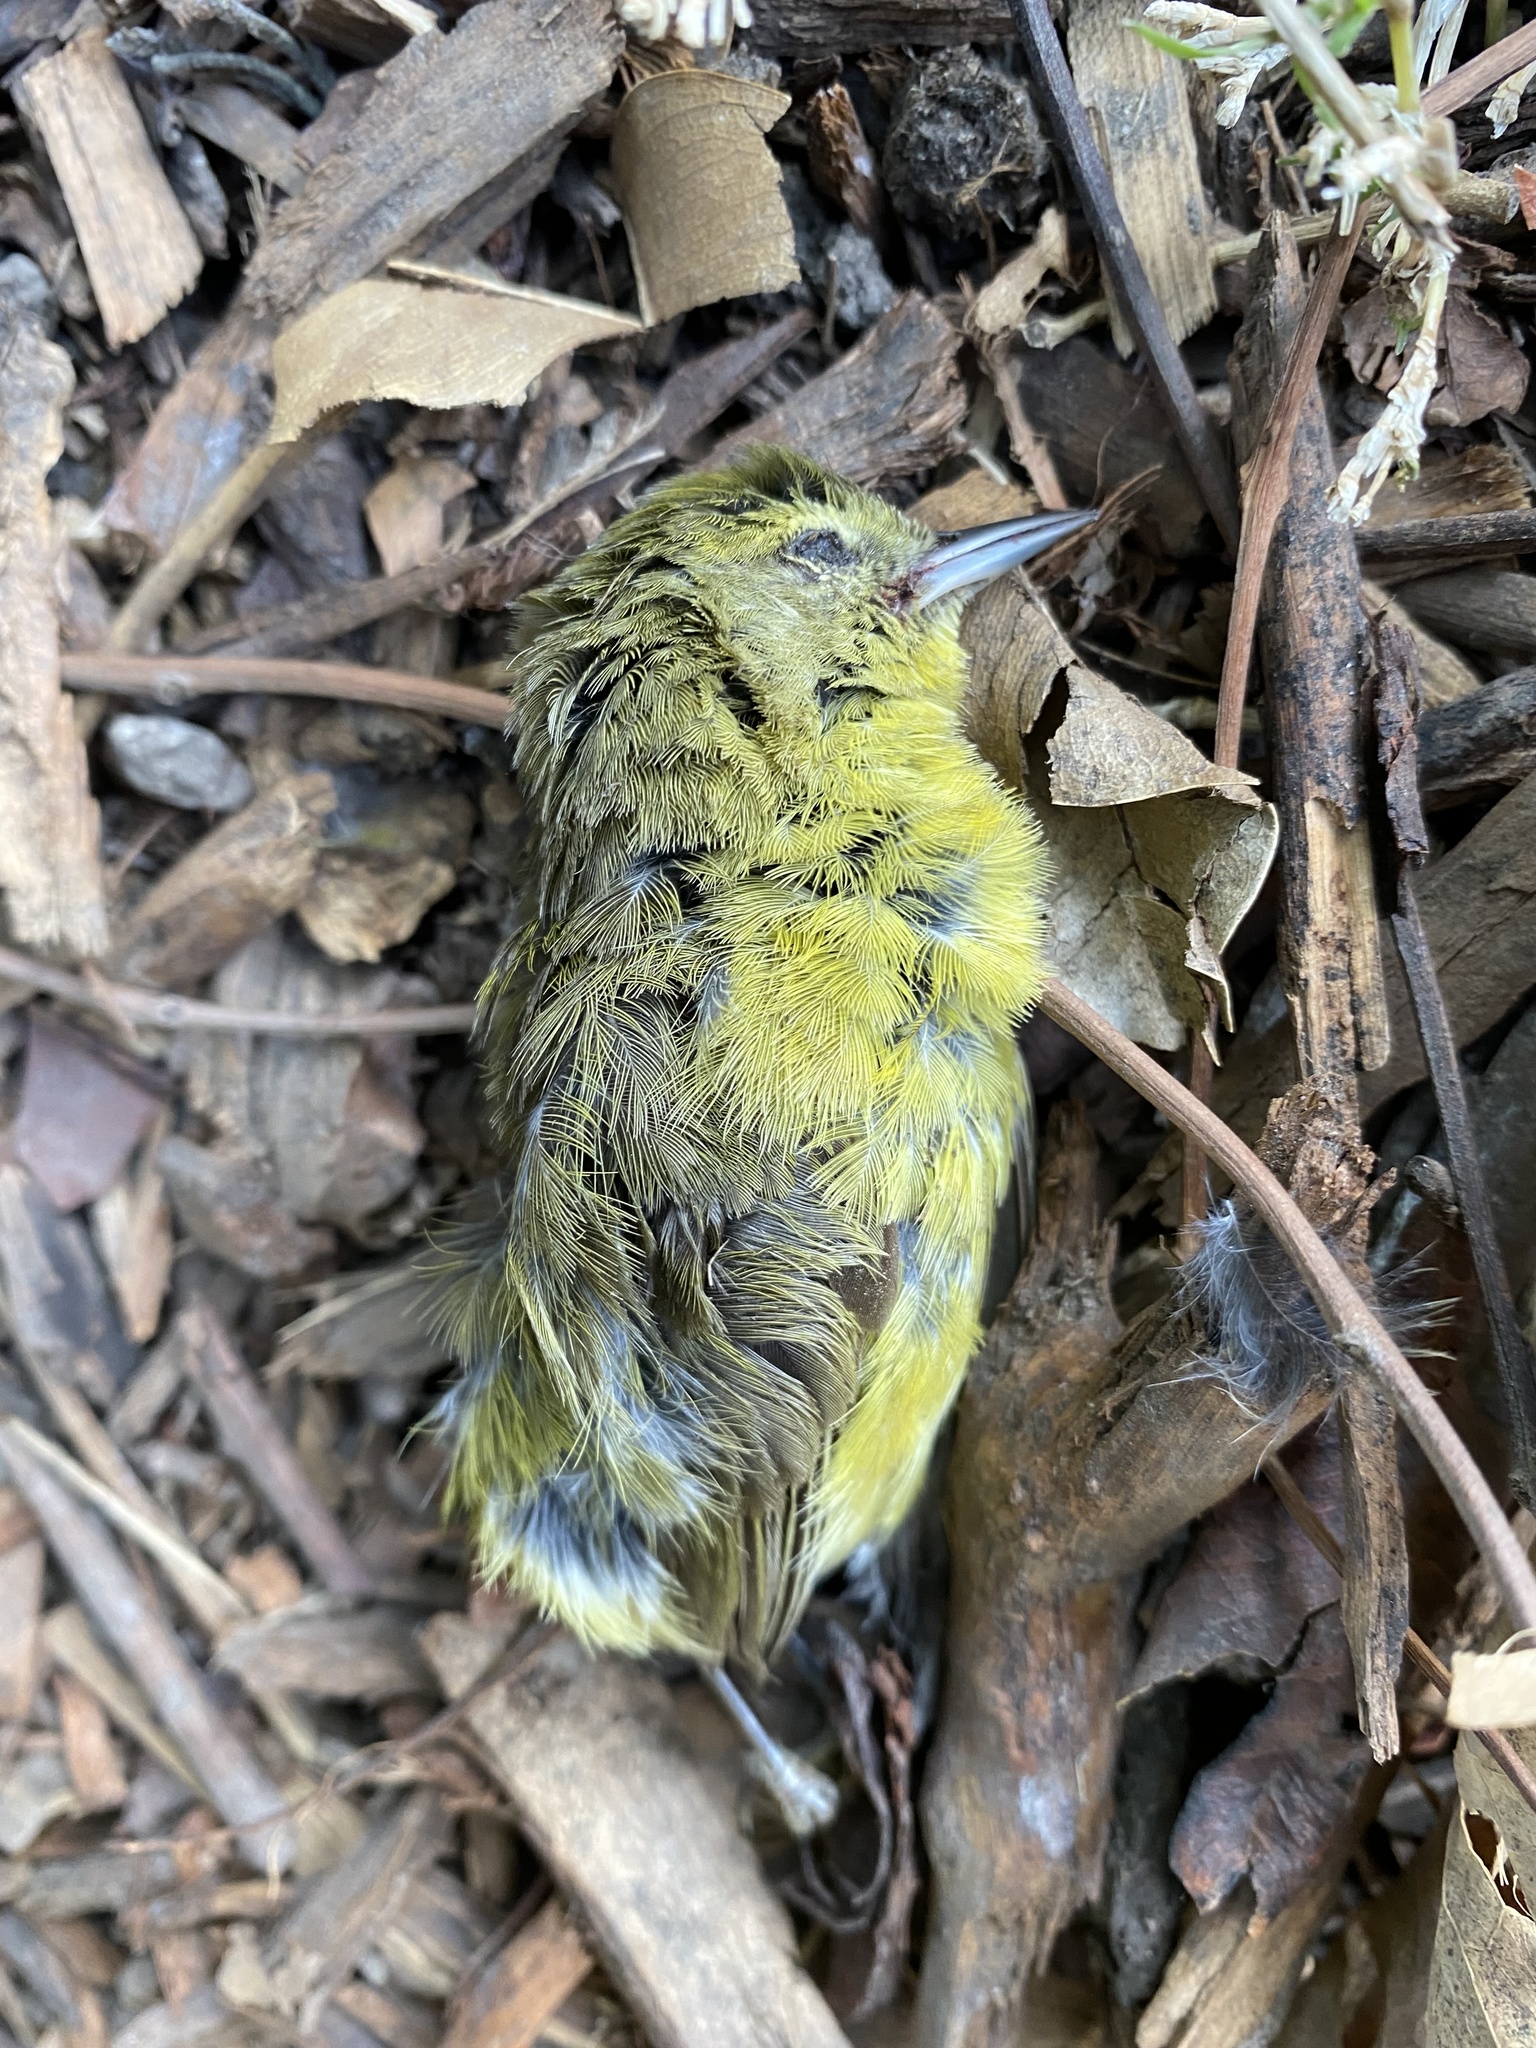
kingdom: Animalia
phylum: Chordata
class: Aves
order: Passeriformes
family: Parulidae
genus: Leiothlypis
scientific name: Leiothlypis celata
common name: Orange-crowned warbler
